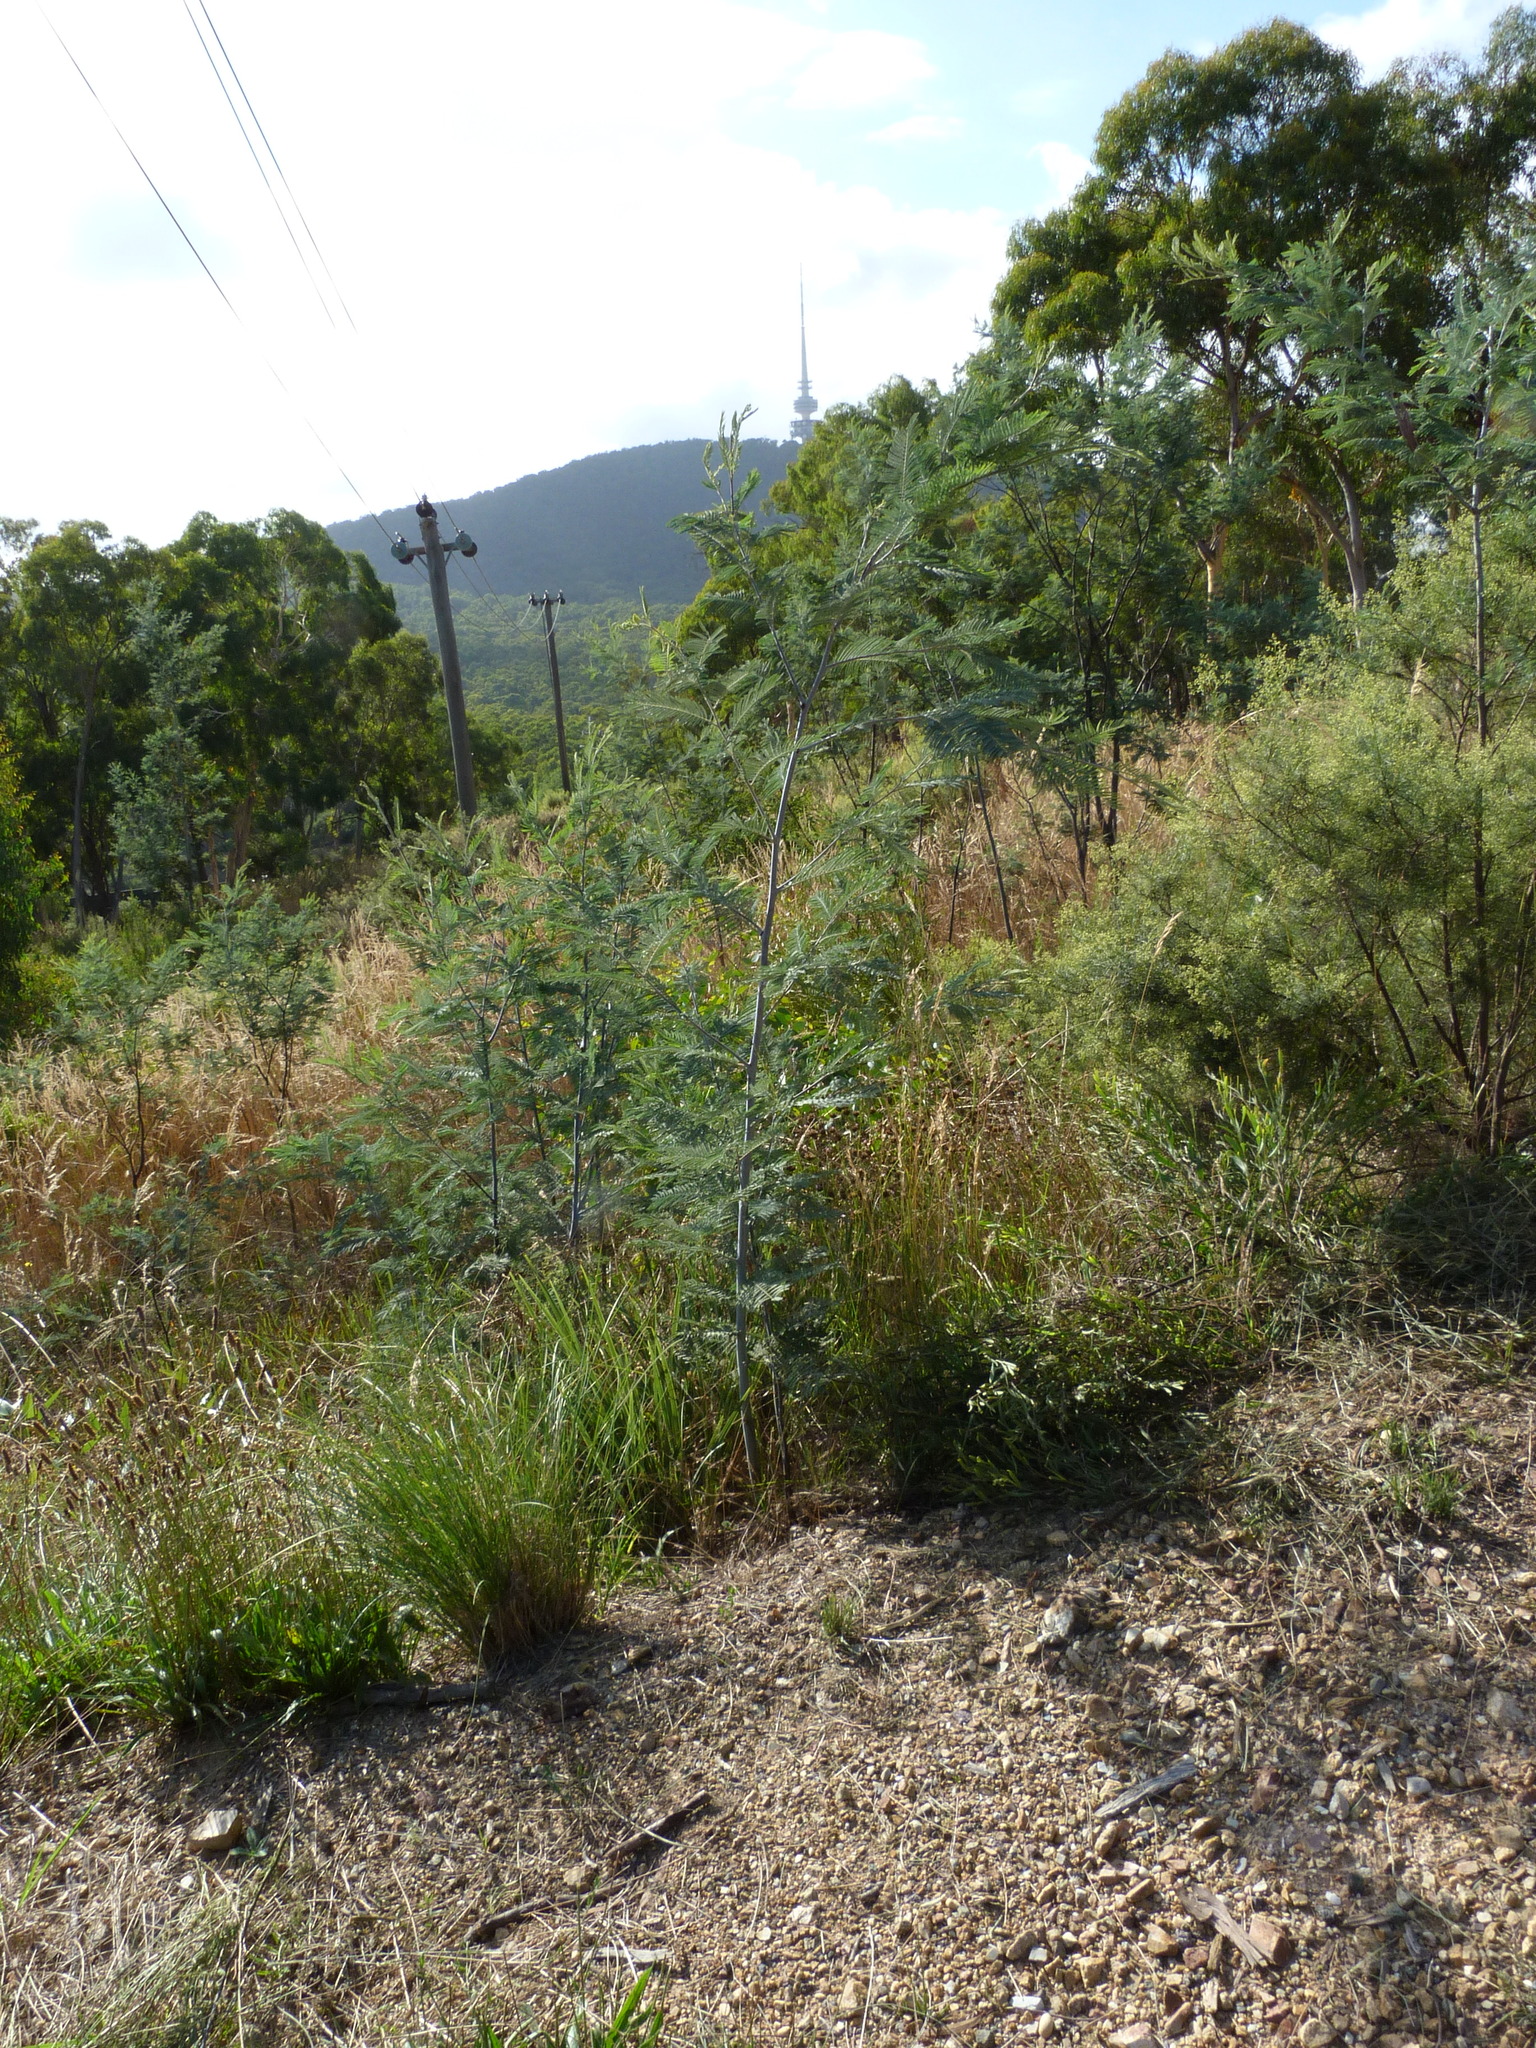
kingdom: Plantae
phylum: Tracheophyta
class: Magnoliopsida
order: Fabales
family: Fabaceae
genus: Acacia
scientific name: Acacia dealbata
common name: Silver wattle
